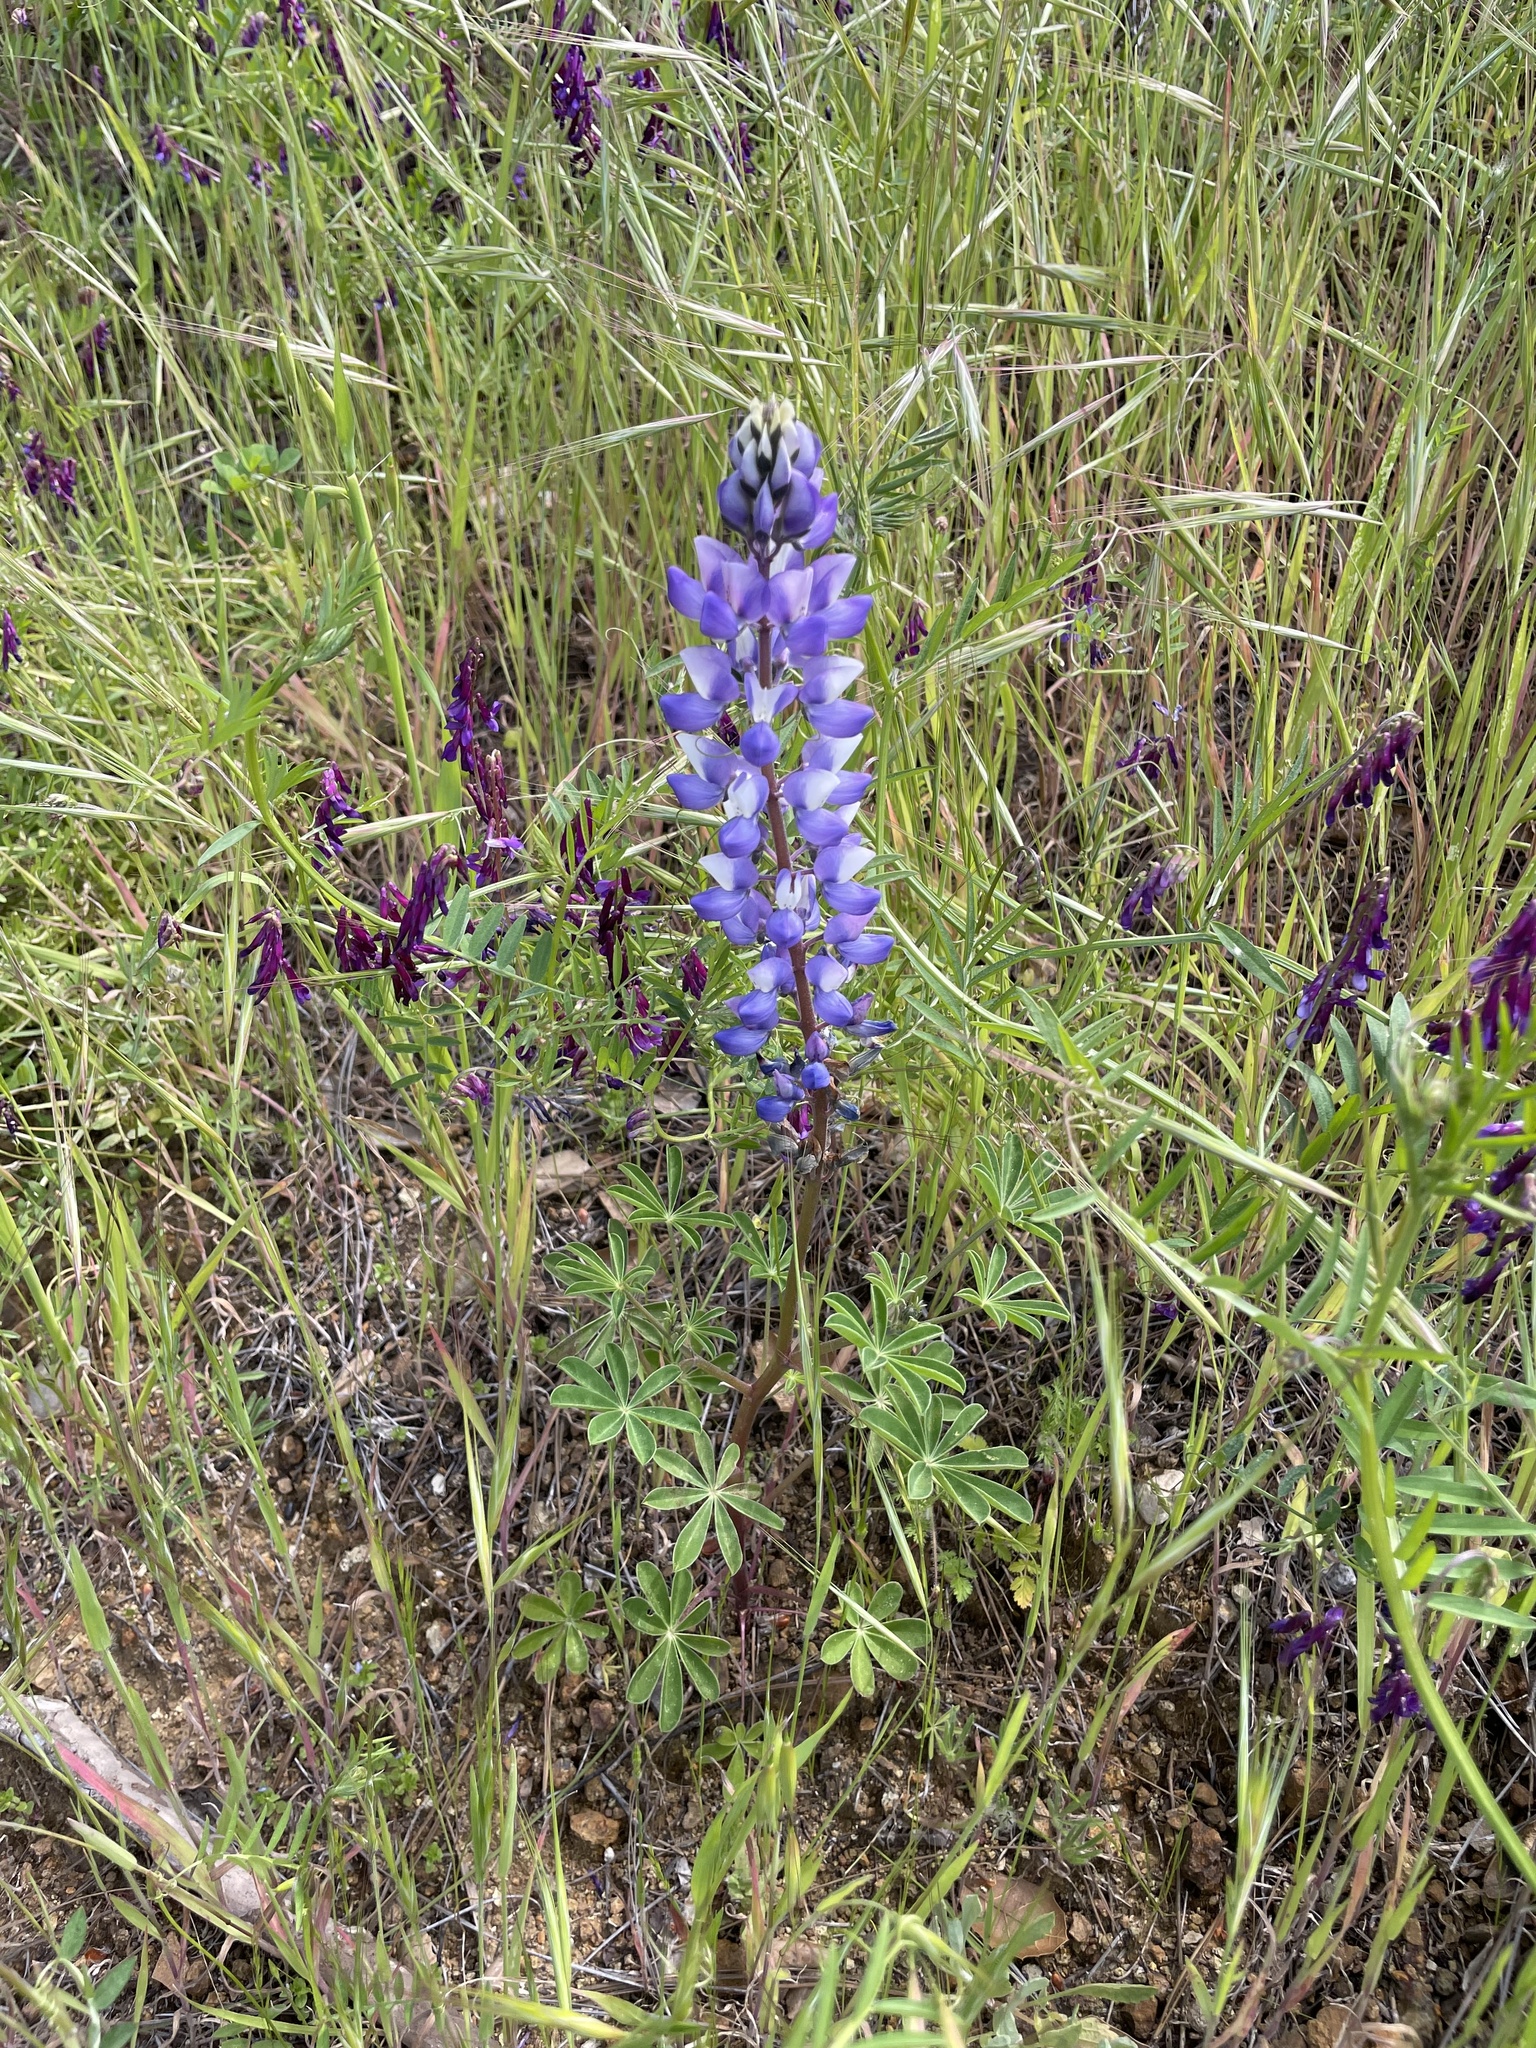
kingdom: Plantae
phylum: Tracheophyta
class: Magnoliopsida
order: Fabales
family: Fabaceae
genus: Lupinus
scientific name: Lupinus succulentus
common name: Arroyo lupine
